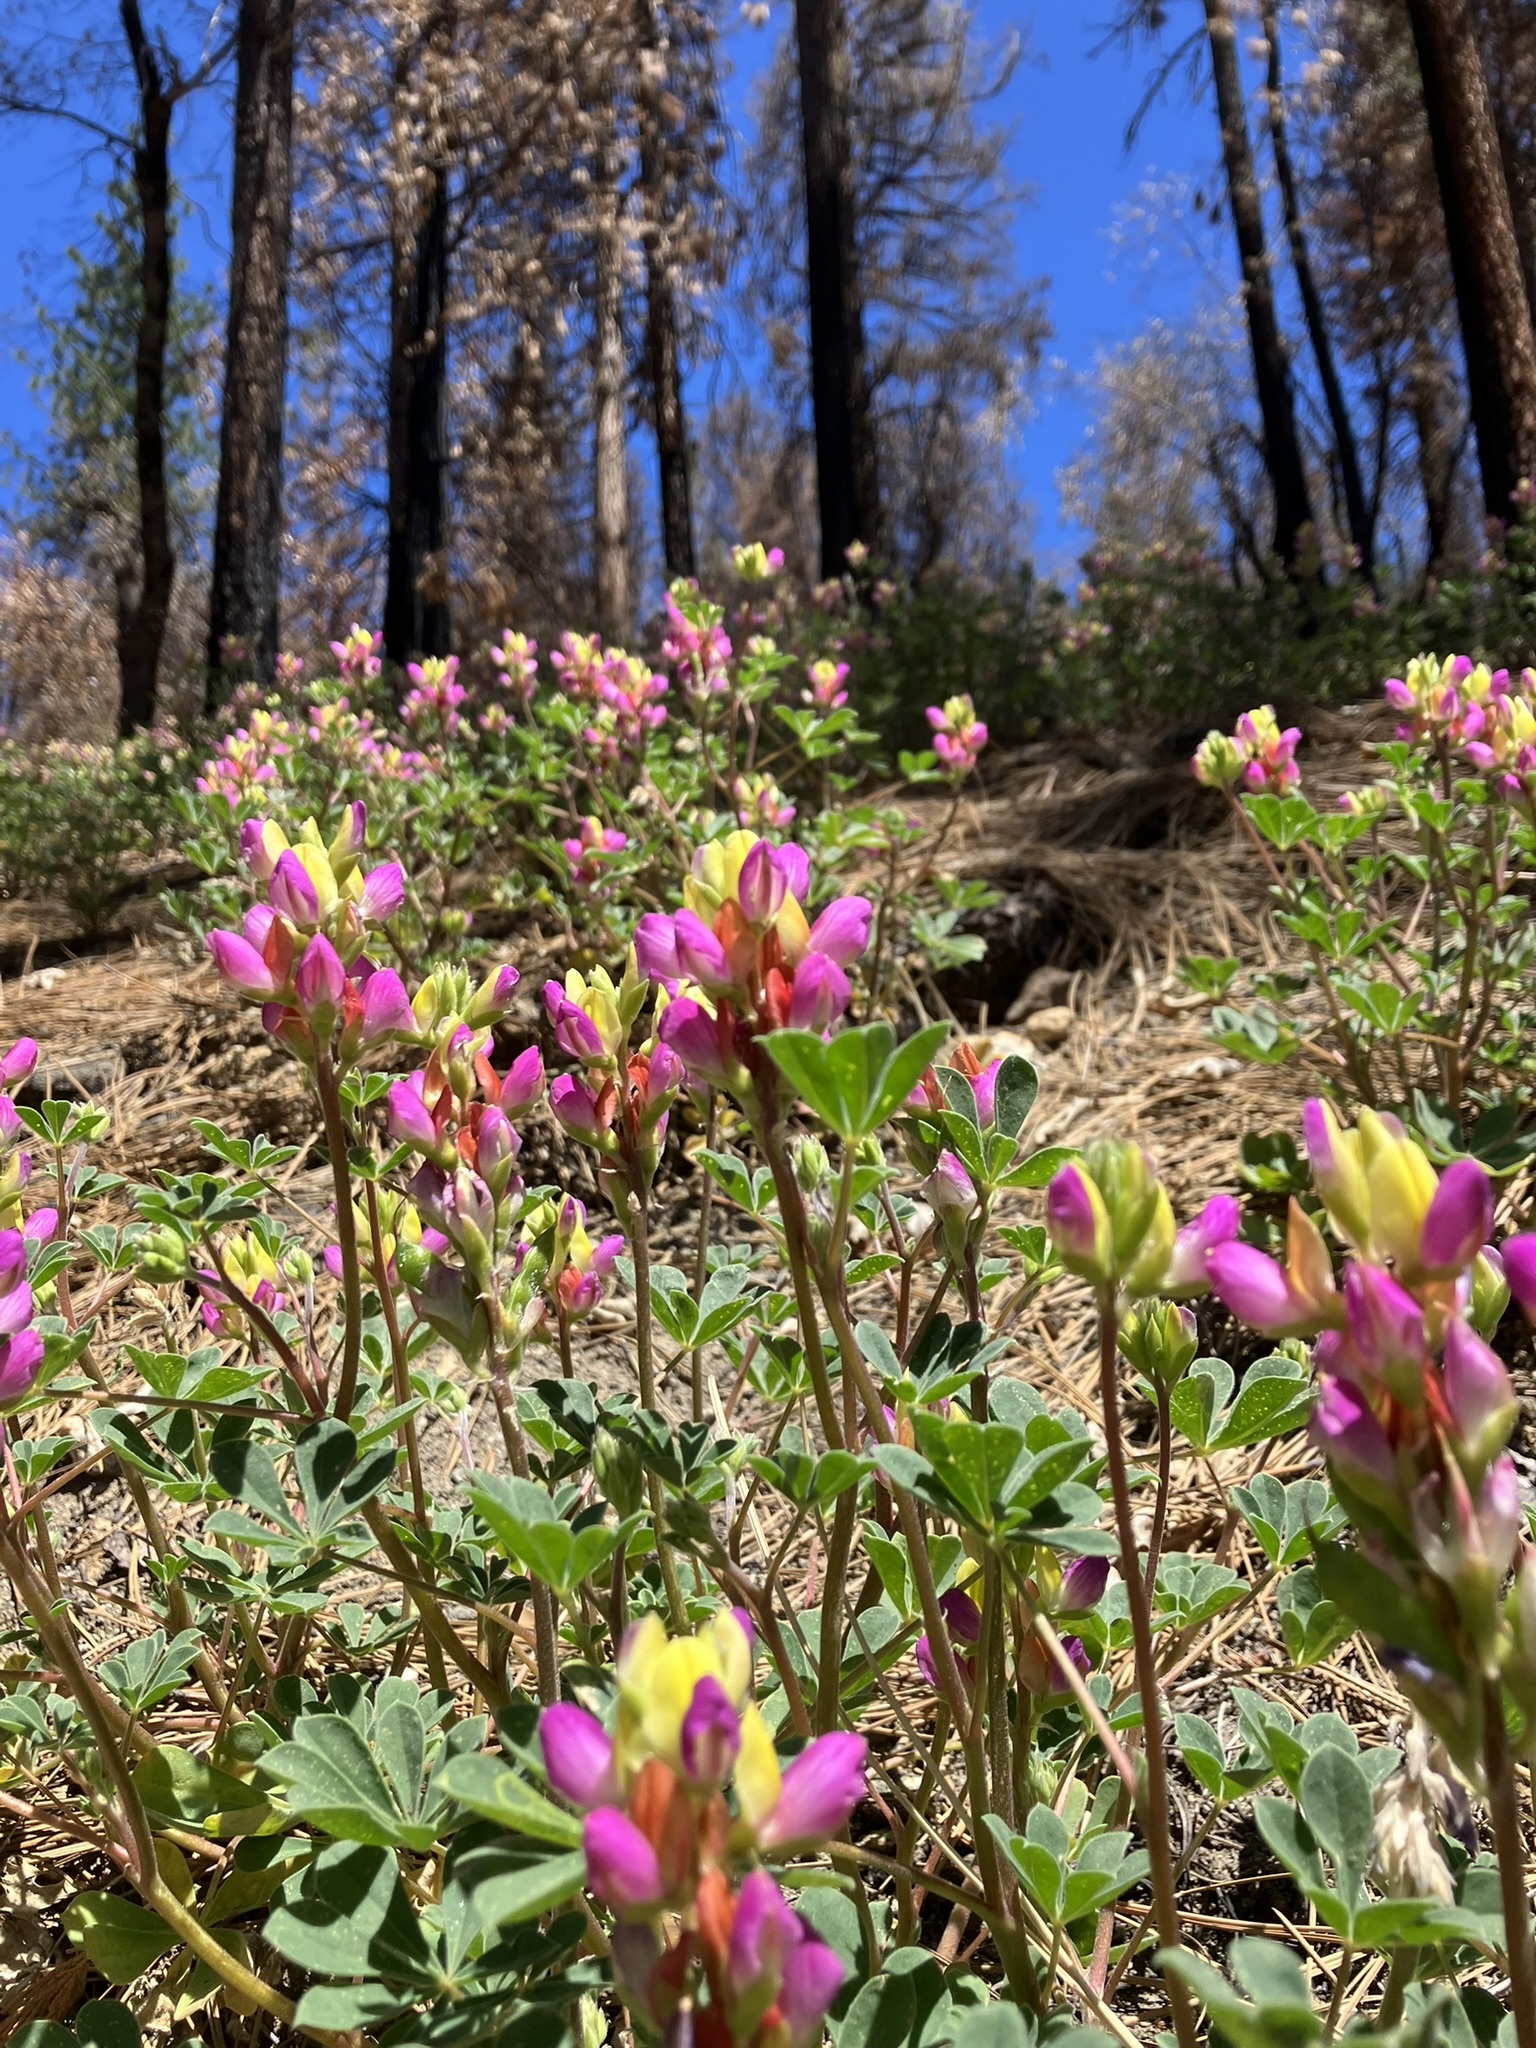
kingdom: Plantae
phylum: Tracheophyta
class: Magnoliopsida
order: Fabales
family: Fabaceae
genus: Lupinus
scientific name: Lupinus stiversii
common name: Harlequin lupine
